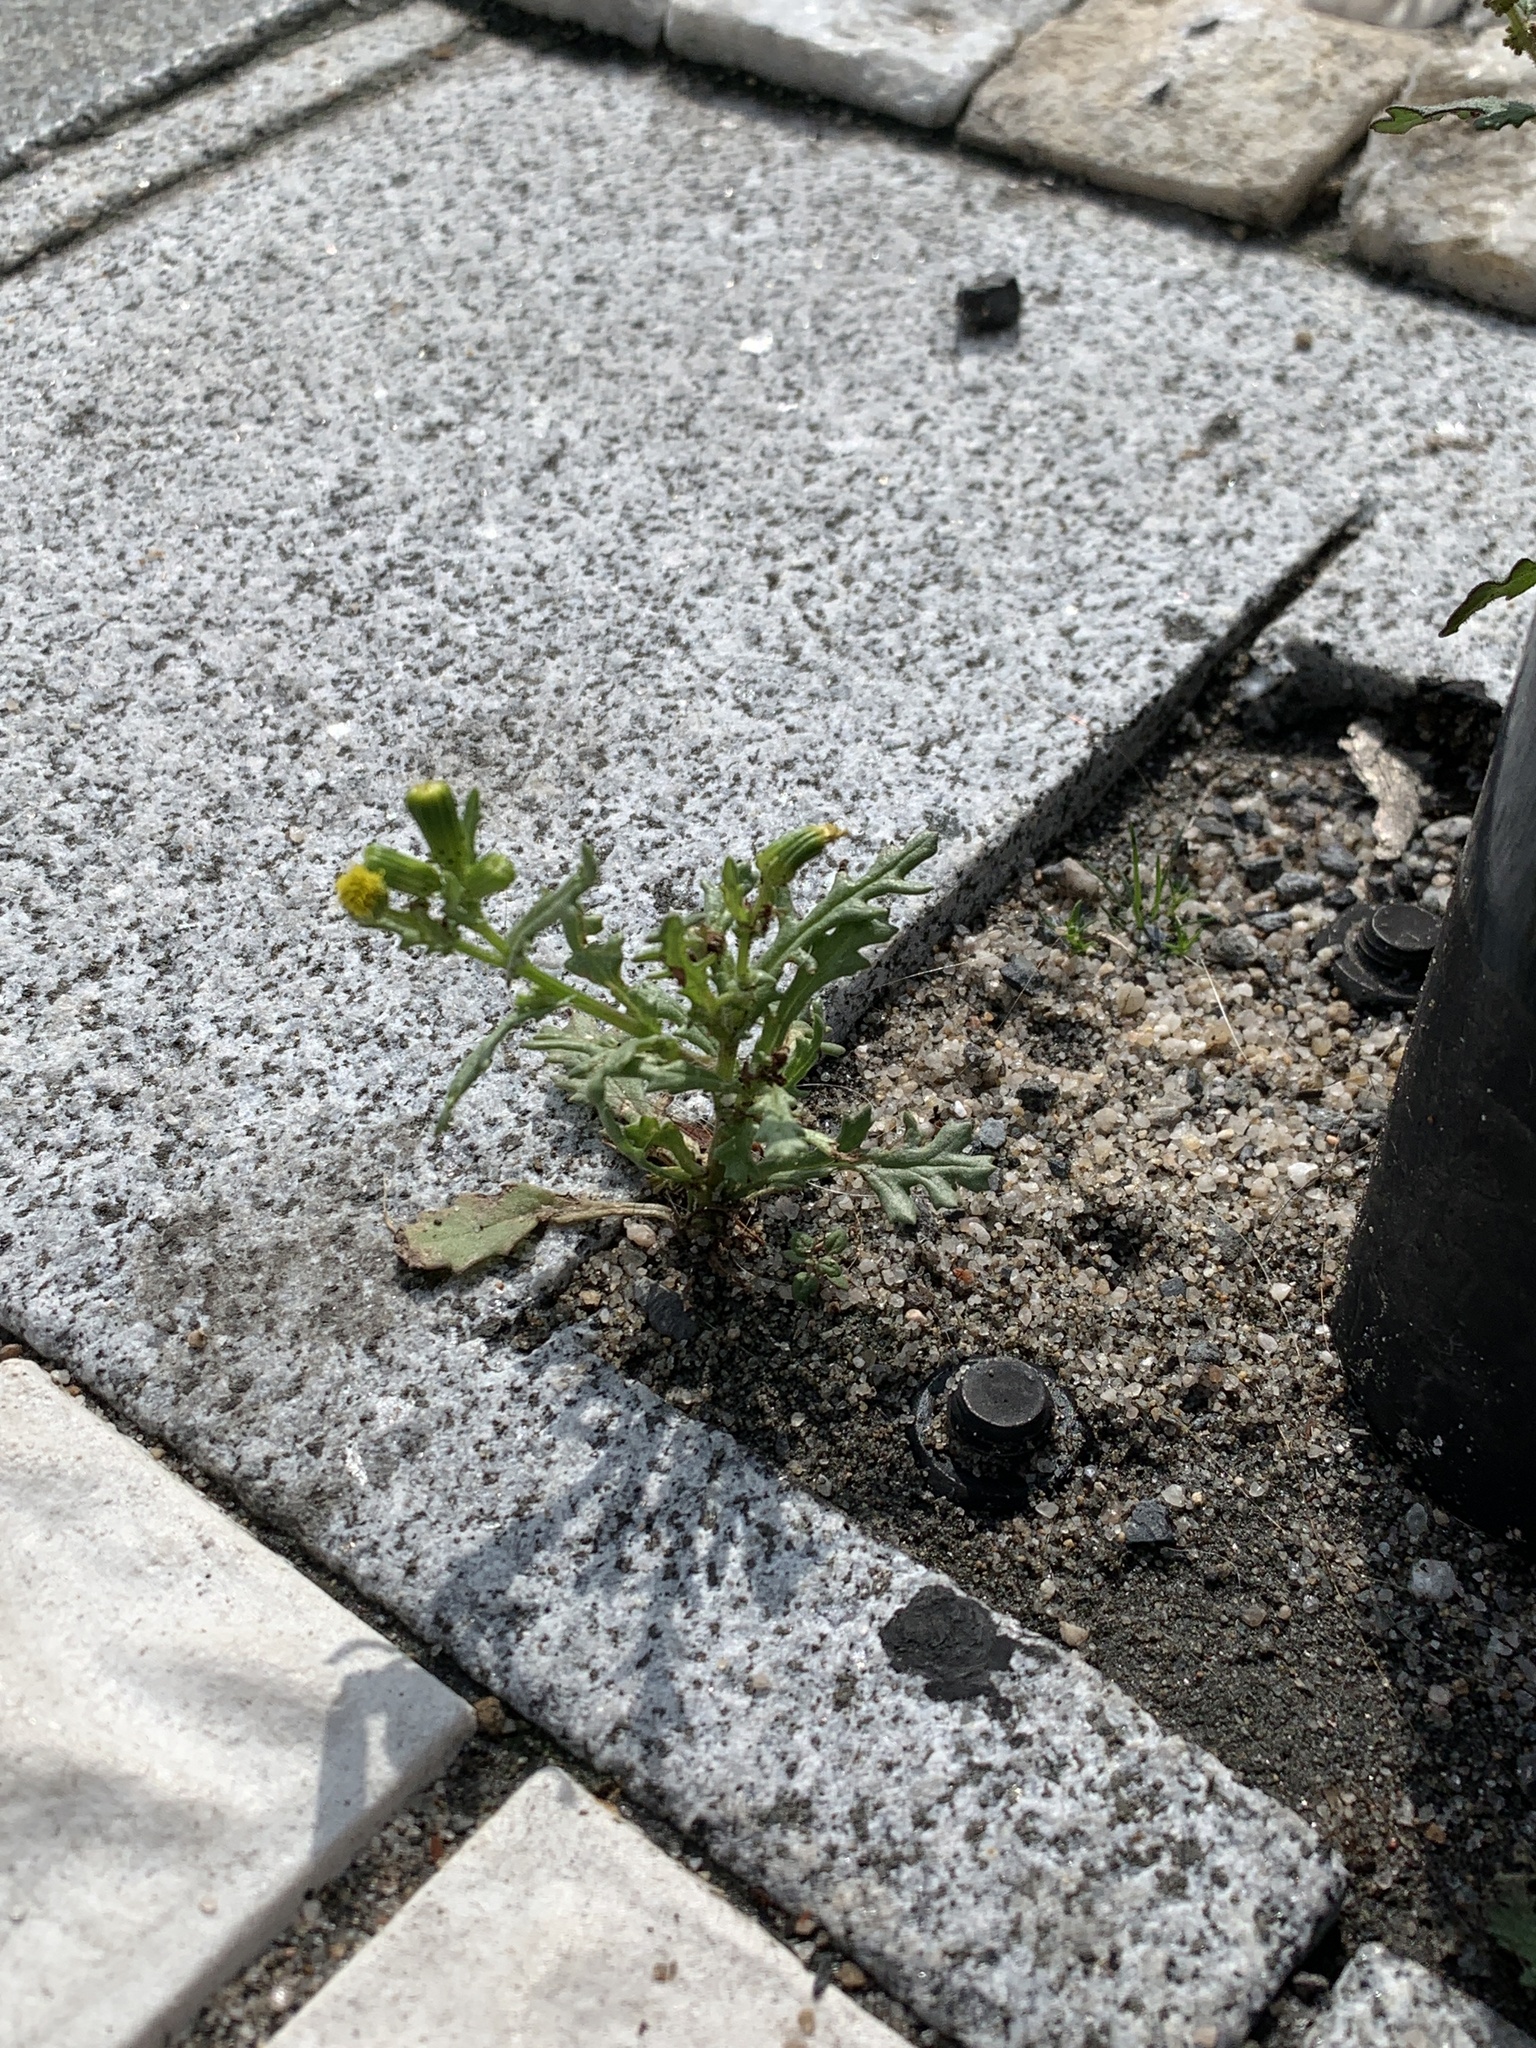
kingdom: Plantae
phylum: Tracheophyta
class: Magnoliopsida
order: Asterales
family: Asteraceae
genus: Senecio
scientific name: Senecio vulgaris
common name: Old-man-in-the-spring
